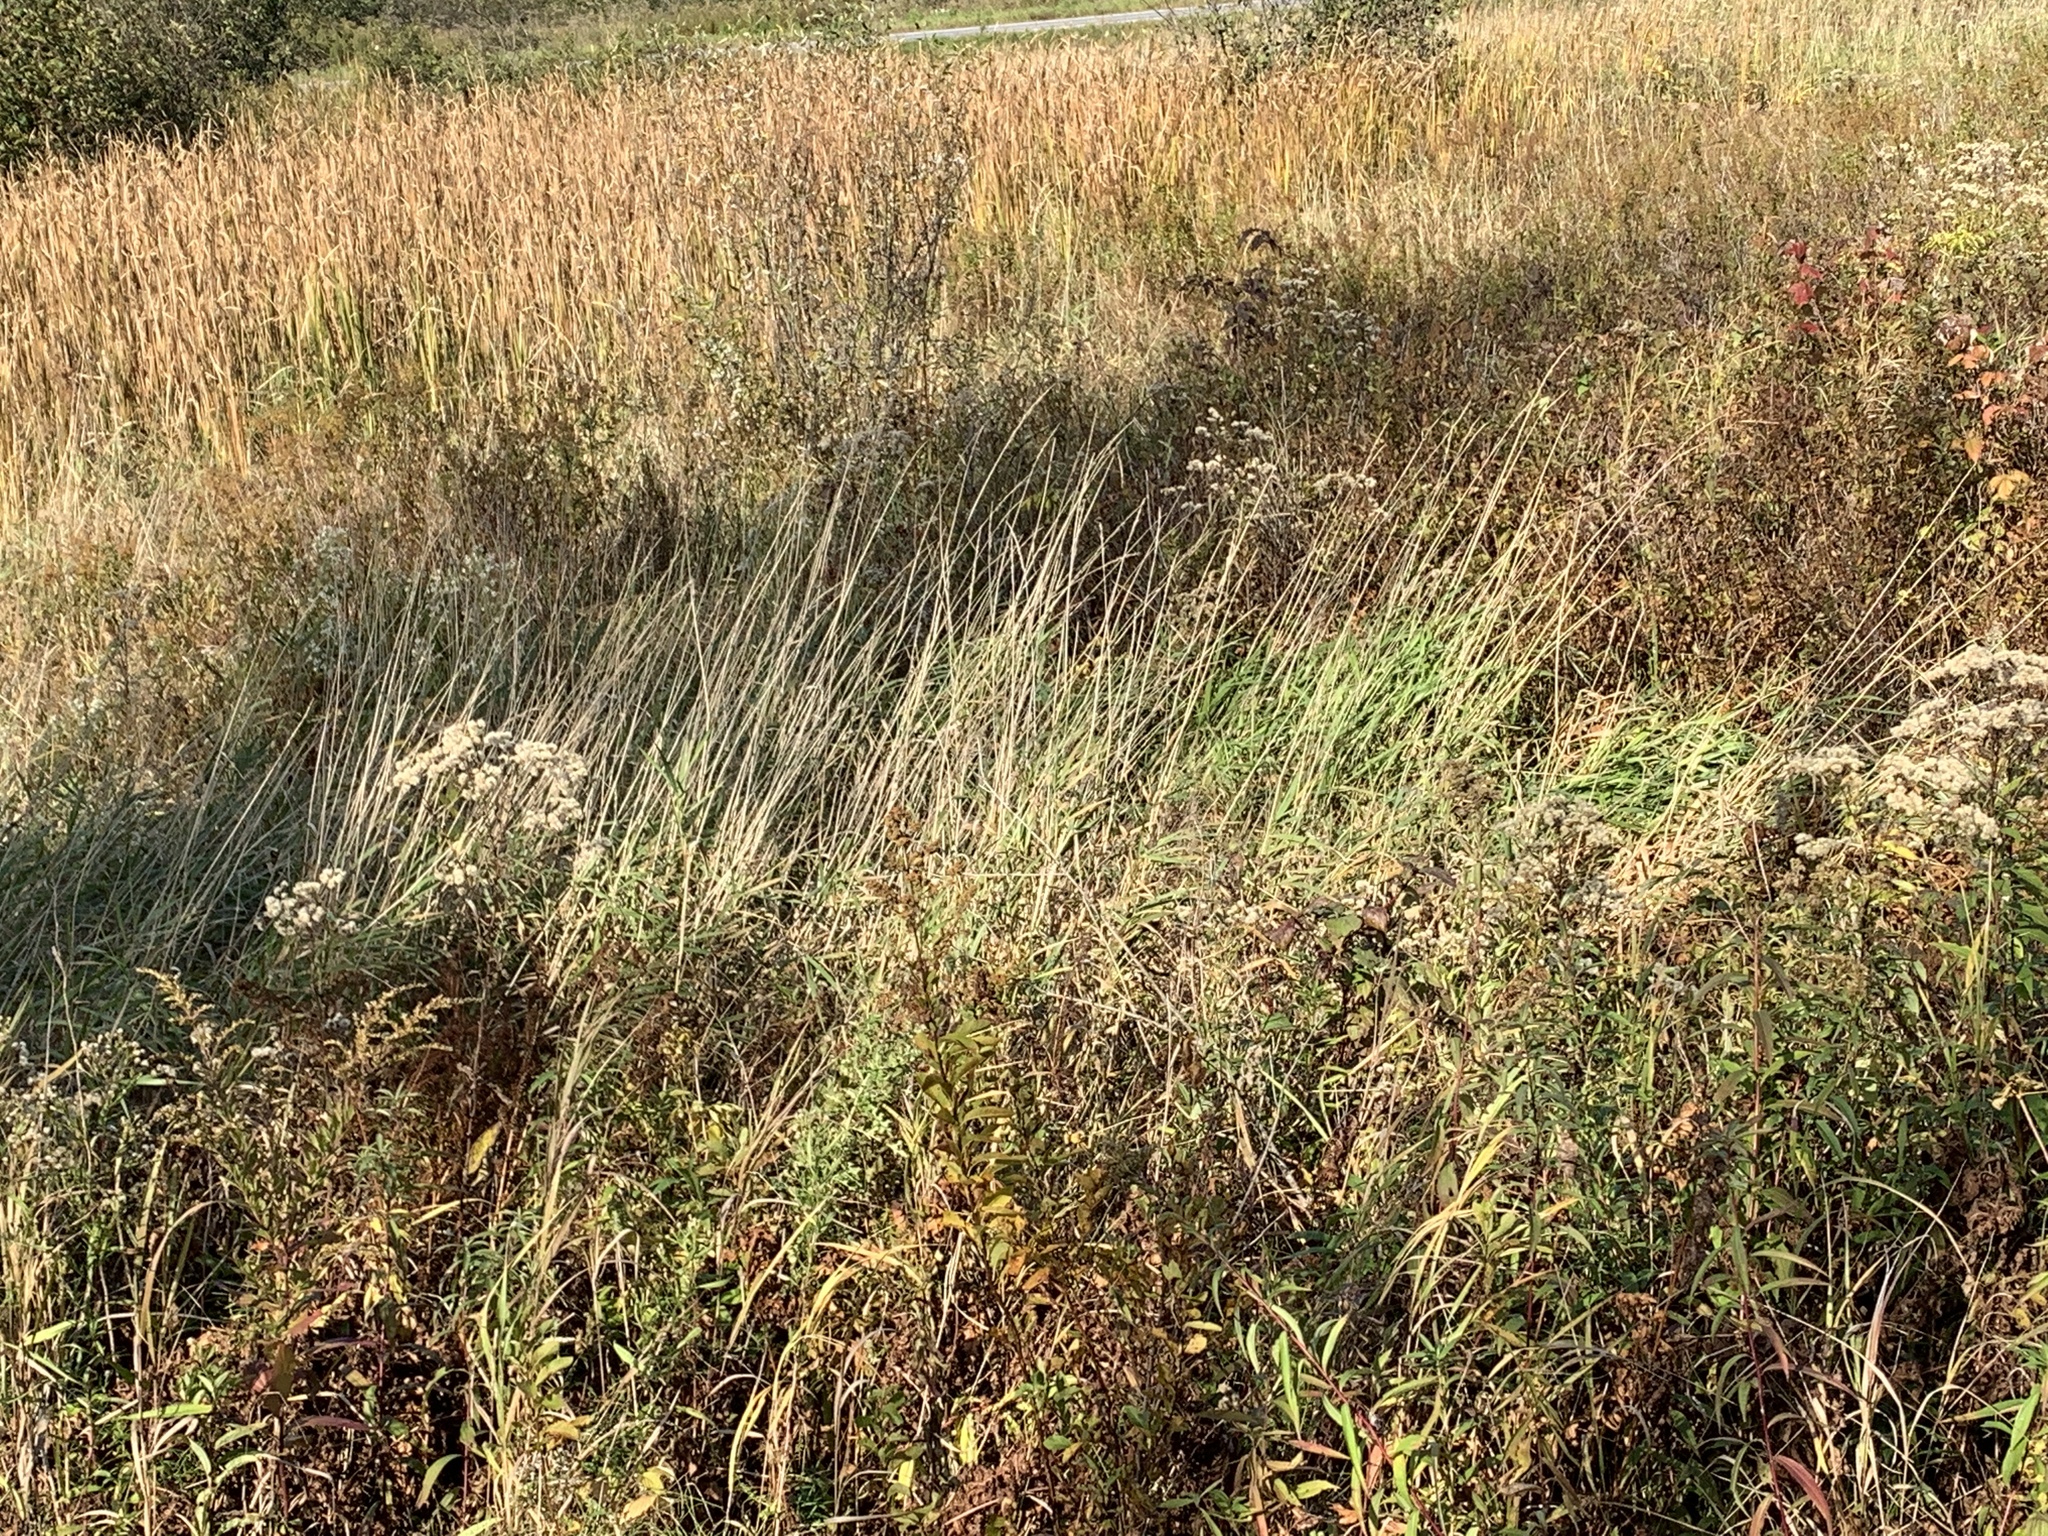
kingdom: Plantae
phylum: Tracheophyta
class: Liliopsida
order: Poales
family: Poaceae
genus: Phalaris
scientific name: Phalaris arundinacea
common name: Reed canary-grass
